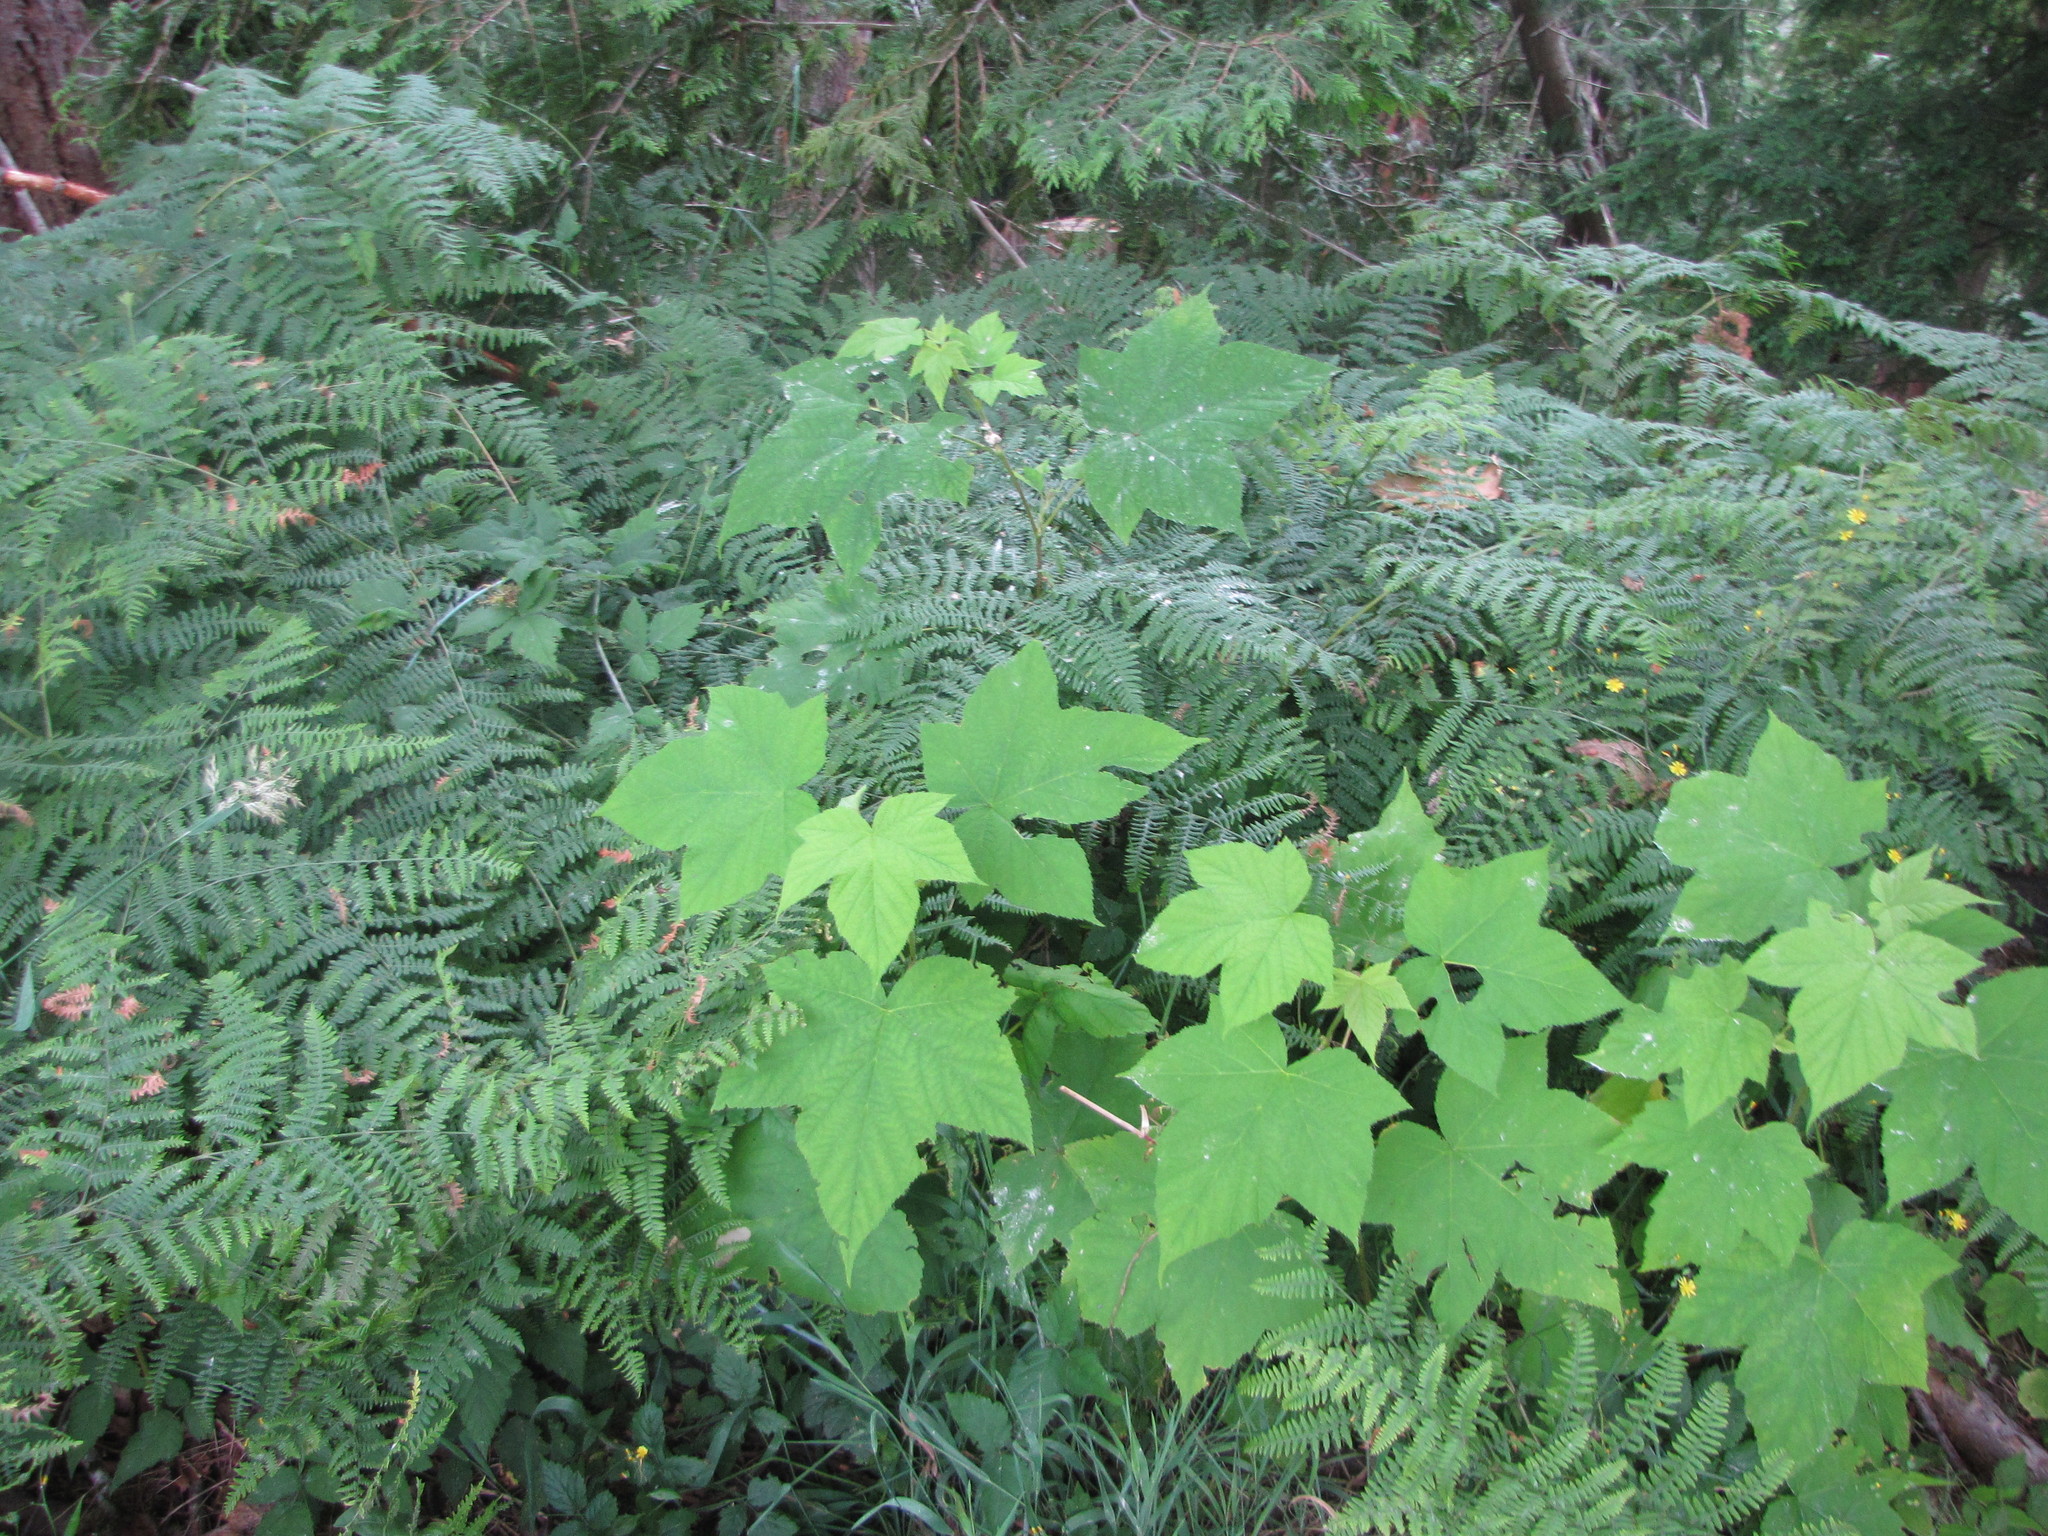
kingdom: Plantae
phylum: Tracheophyta
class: Magnoliopsida
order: Rosales
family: Rosaceae
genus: Rubus
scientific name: Rubus parviflorus
